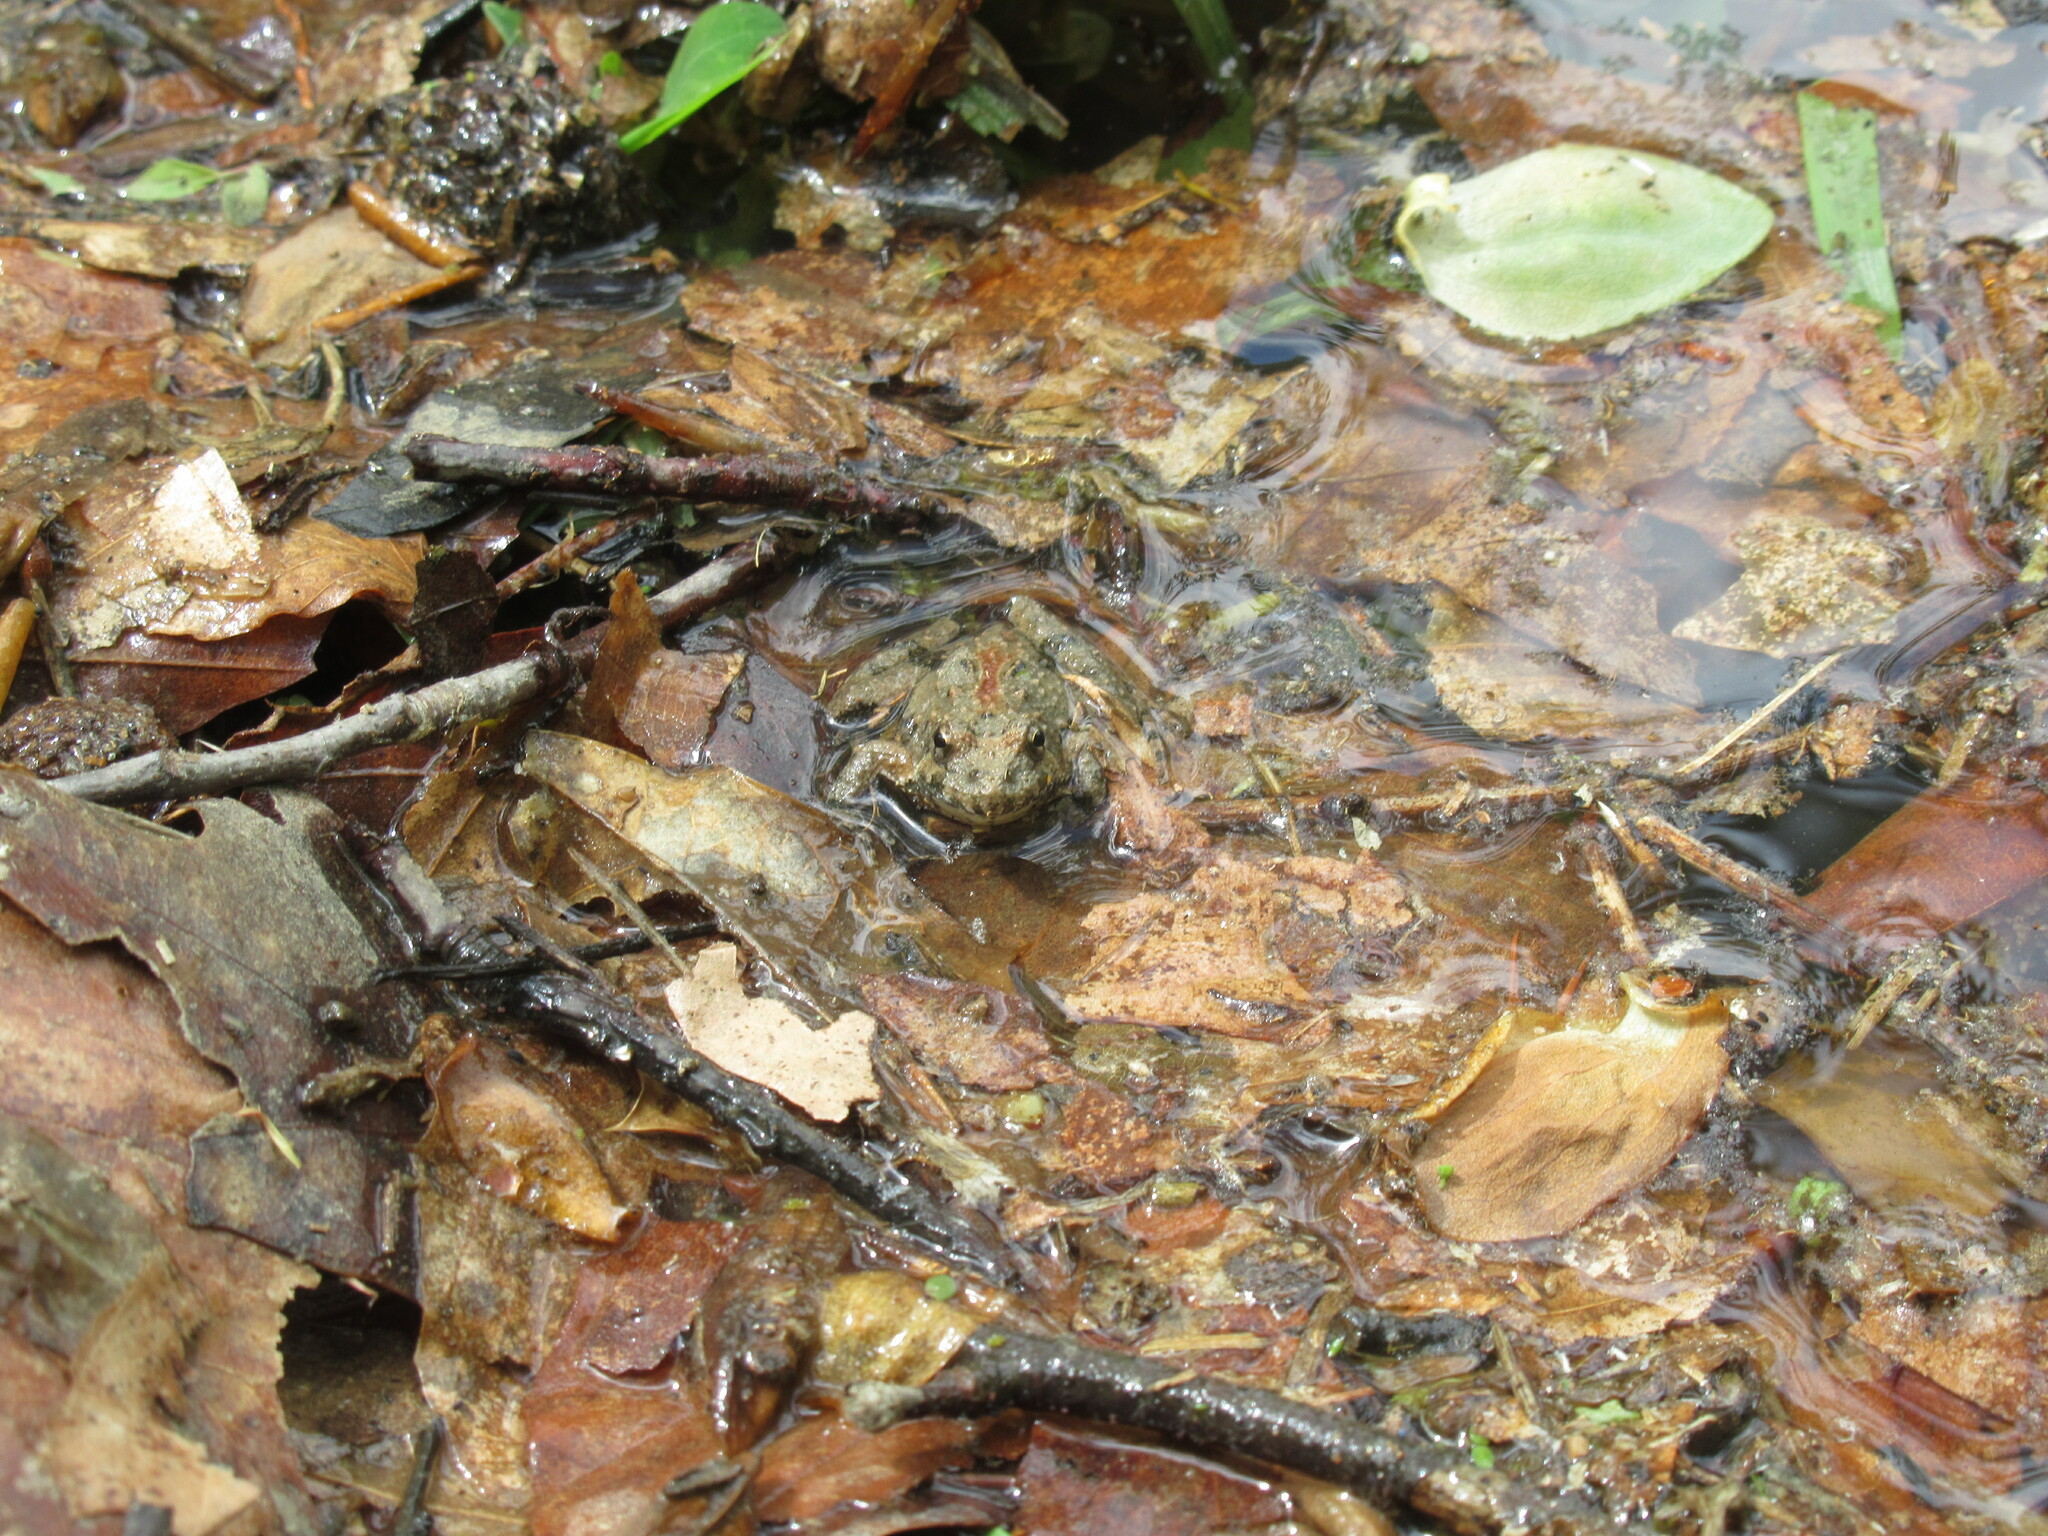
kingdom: Animalia
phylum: Chordata
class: Amphibia
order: Anura
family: Hylidae
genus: Acris
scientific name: Acris crepitans
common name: Northern cricket frog
